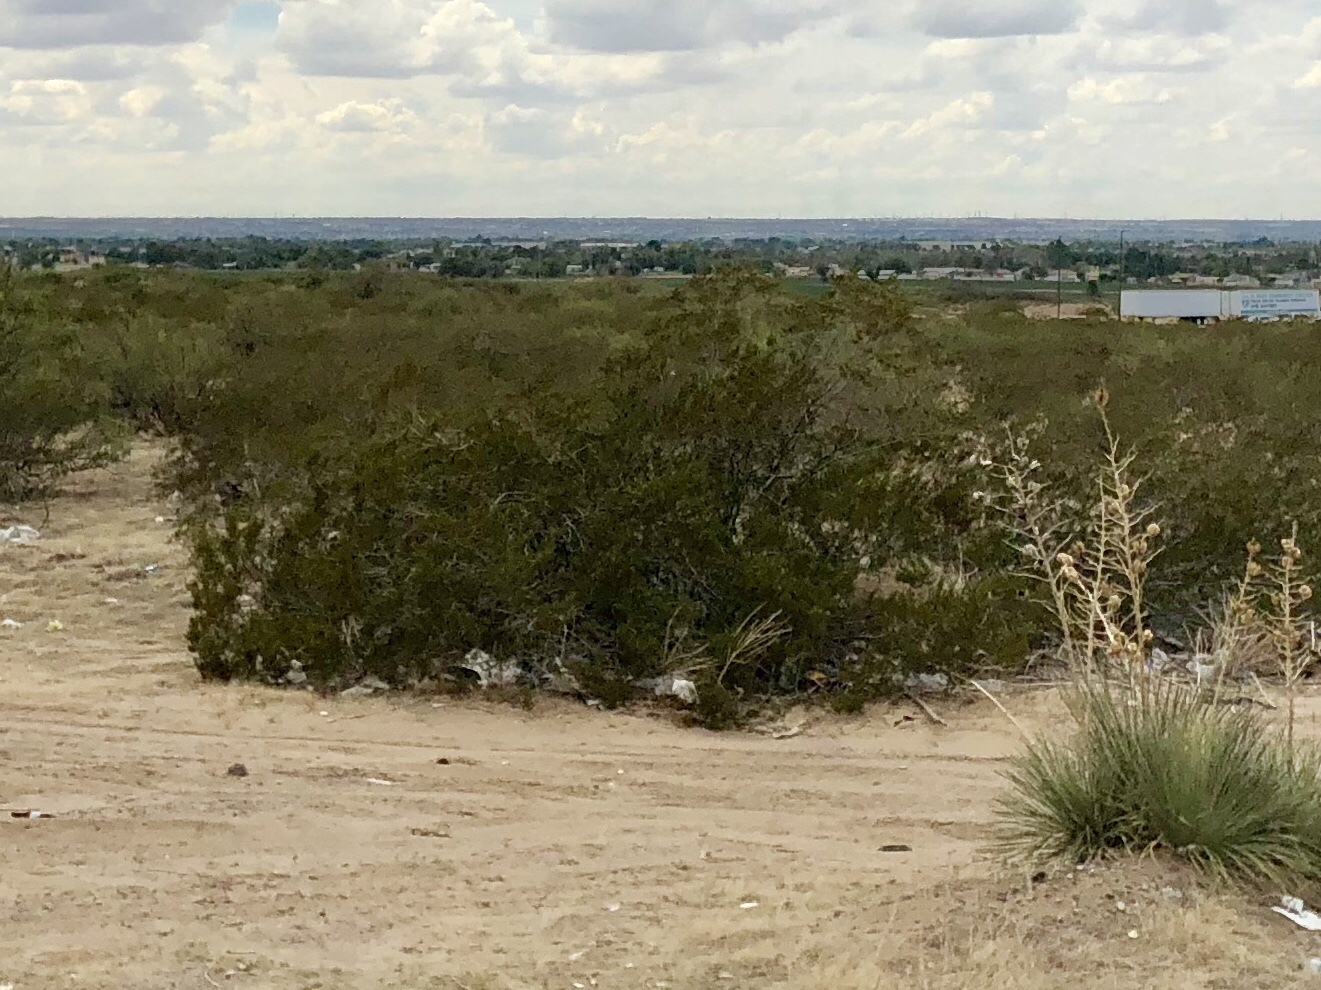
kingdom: Plantae
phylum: Tracheophyta
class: Magnoliopsida
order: Zygophyllales
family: Zygophyllaceae
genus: Larrea
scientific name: Larrea tridentata
